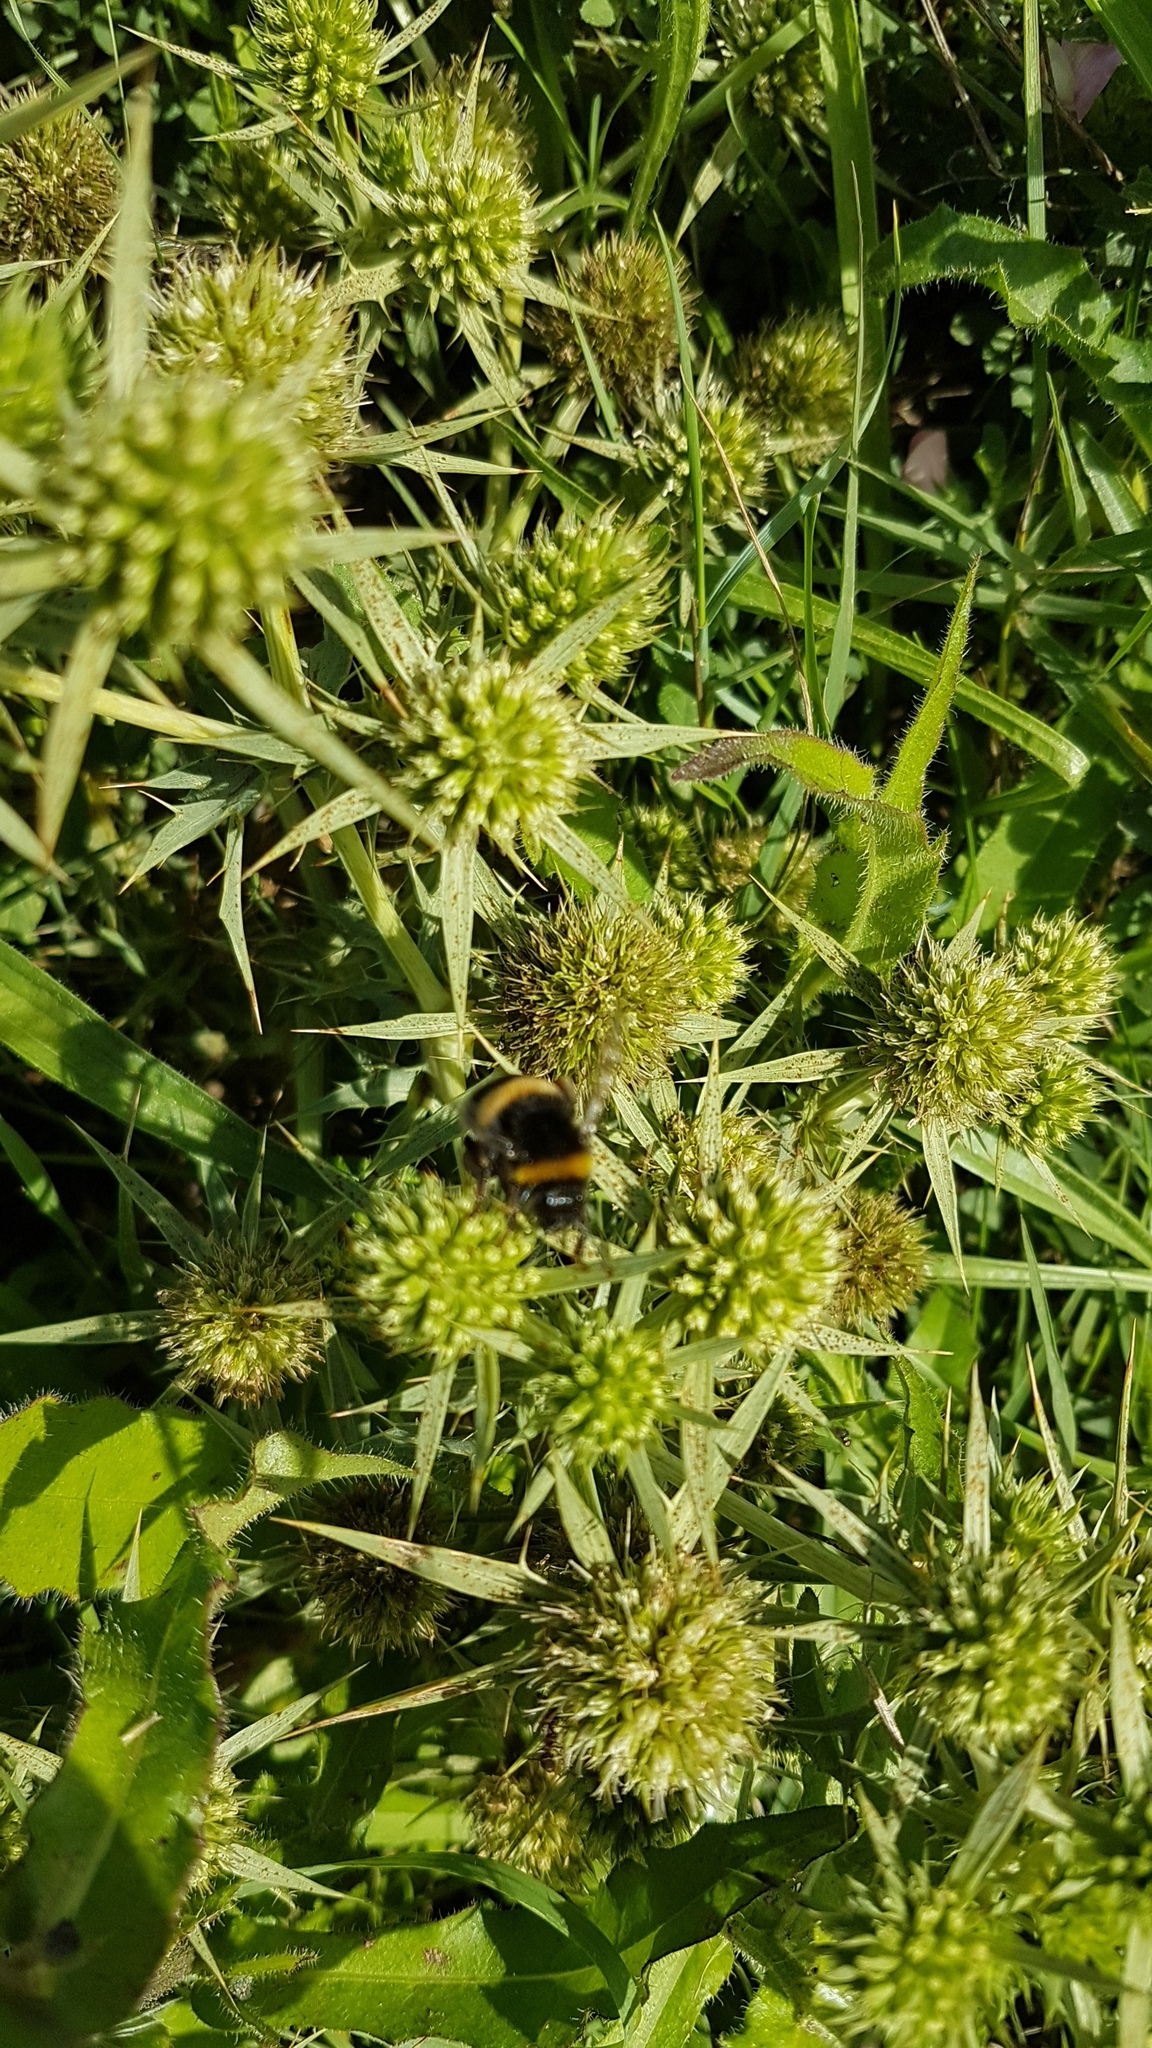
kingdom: Plantae
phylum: Tracheophyta
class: Magnoliopsida
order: Apiales
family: Apiaceae
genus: Eryngium
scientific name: Eryngium campestre
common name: Field eryngo
